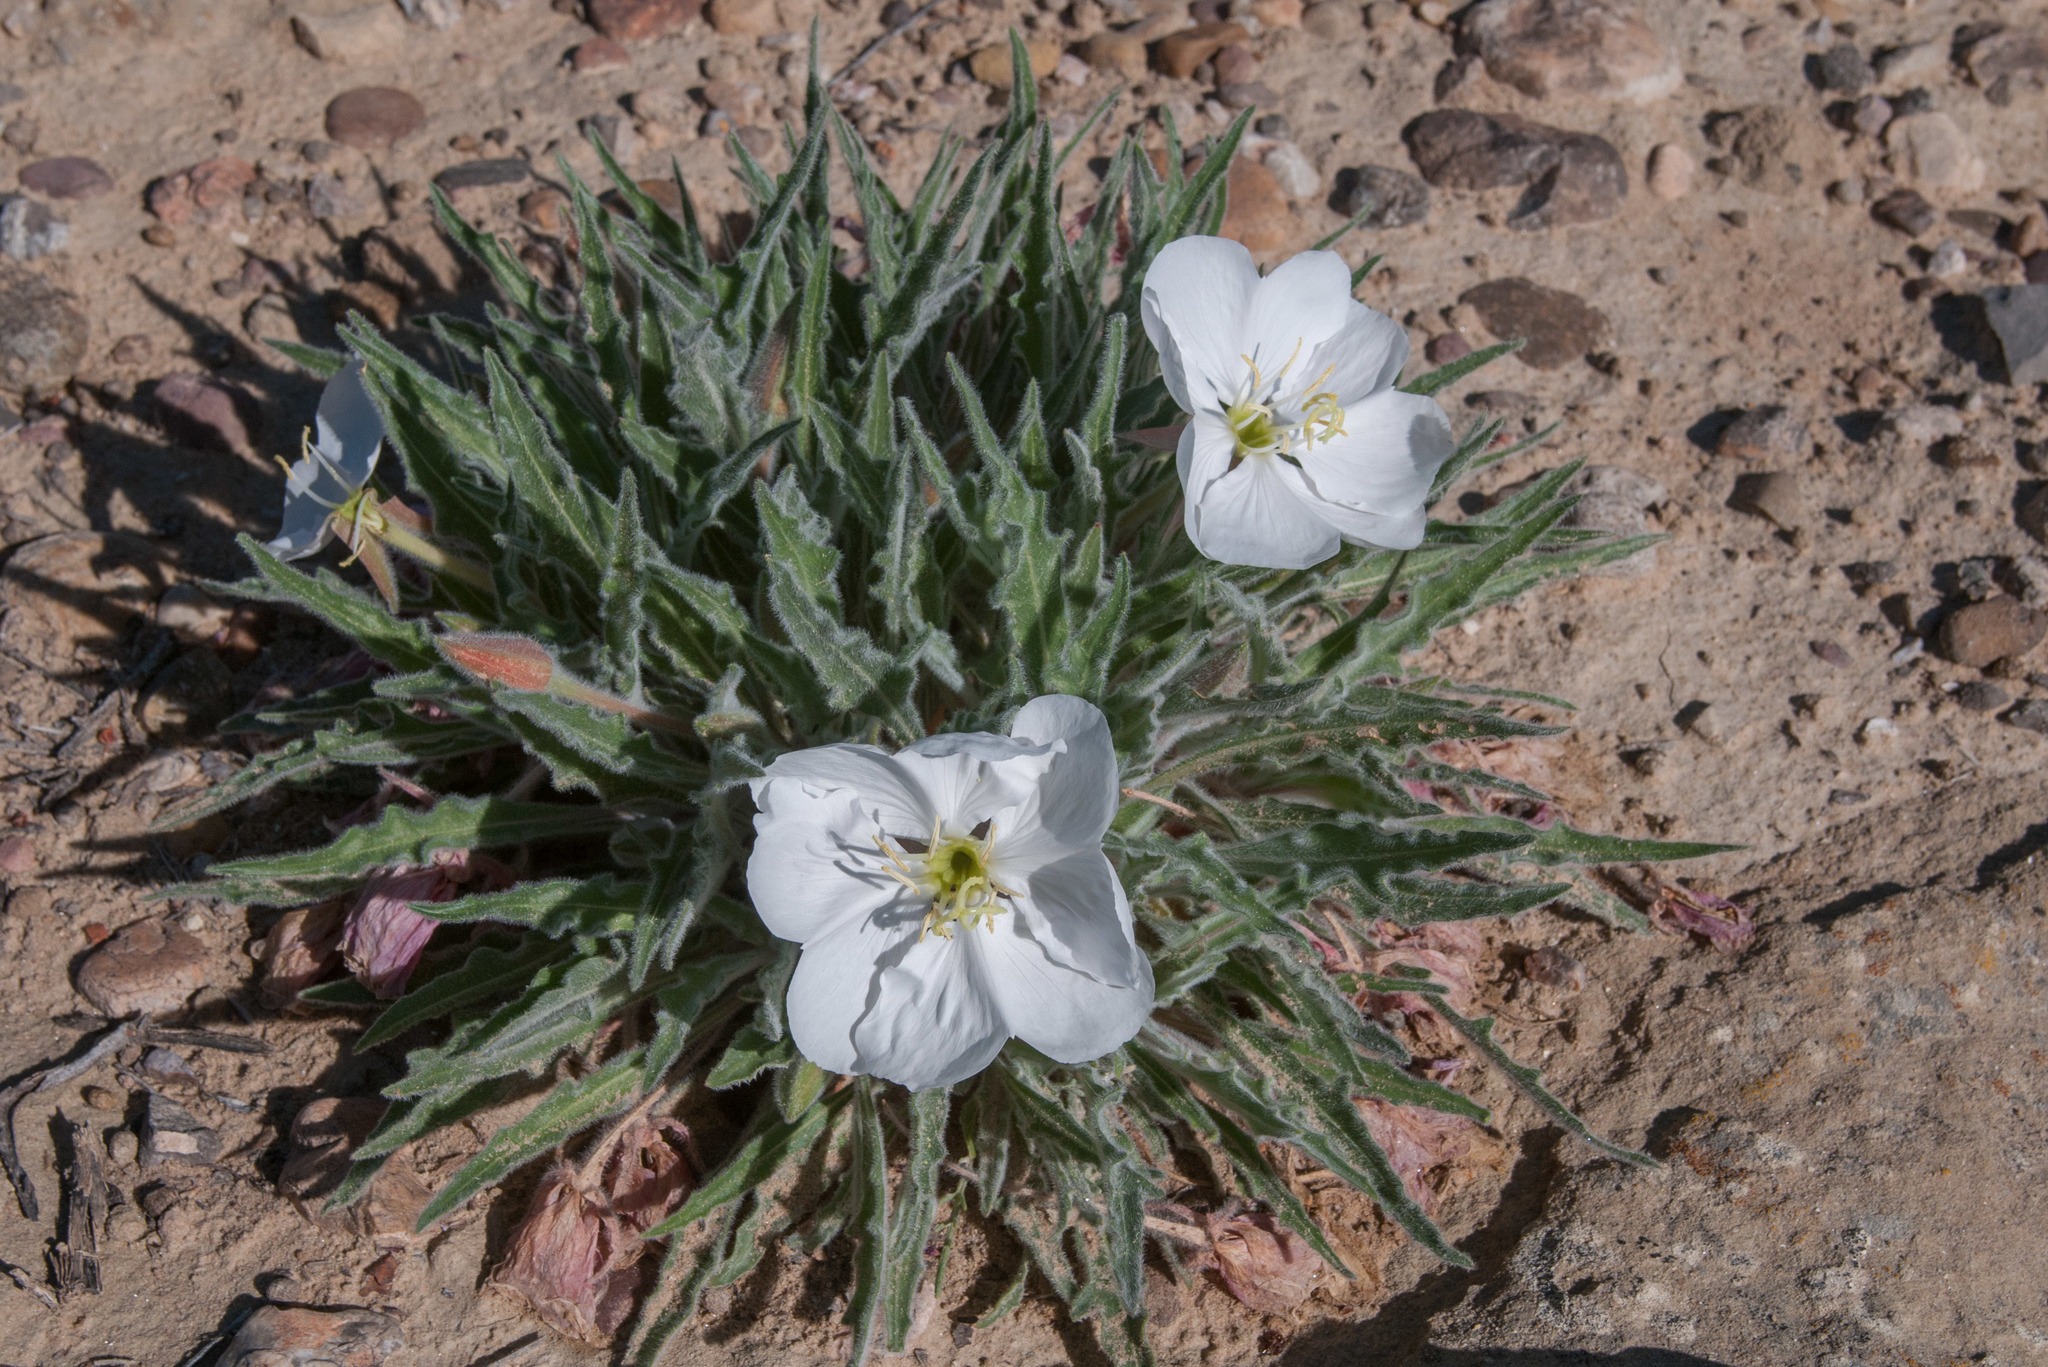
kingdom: Plantae
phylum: Tracheophyta
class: Magnoliopsida
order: Myrtales
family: Onagraceae
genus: Oenothera
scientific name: Oenothera cespitosa
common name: Tufted evening-primrose
